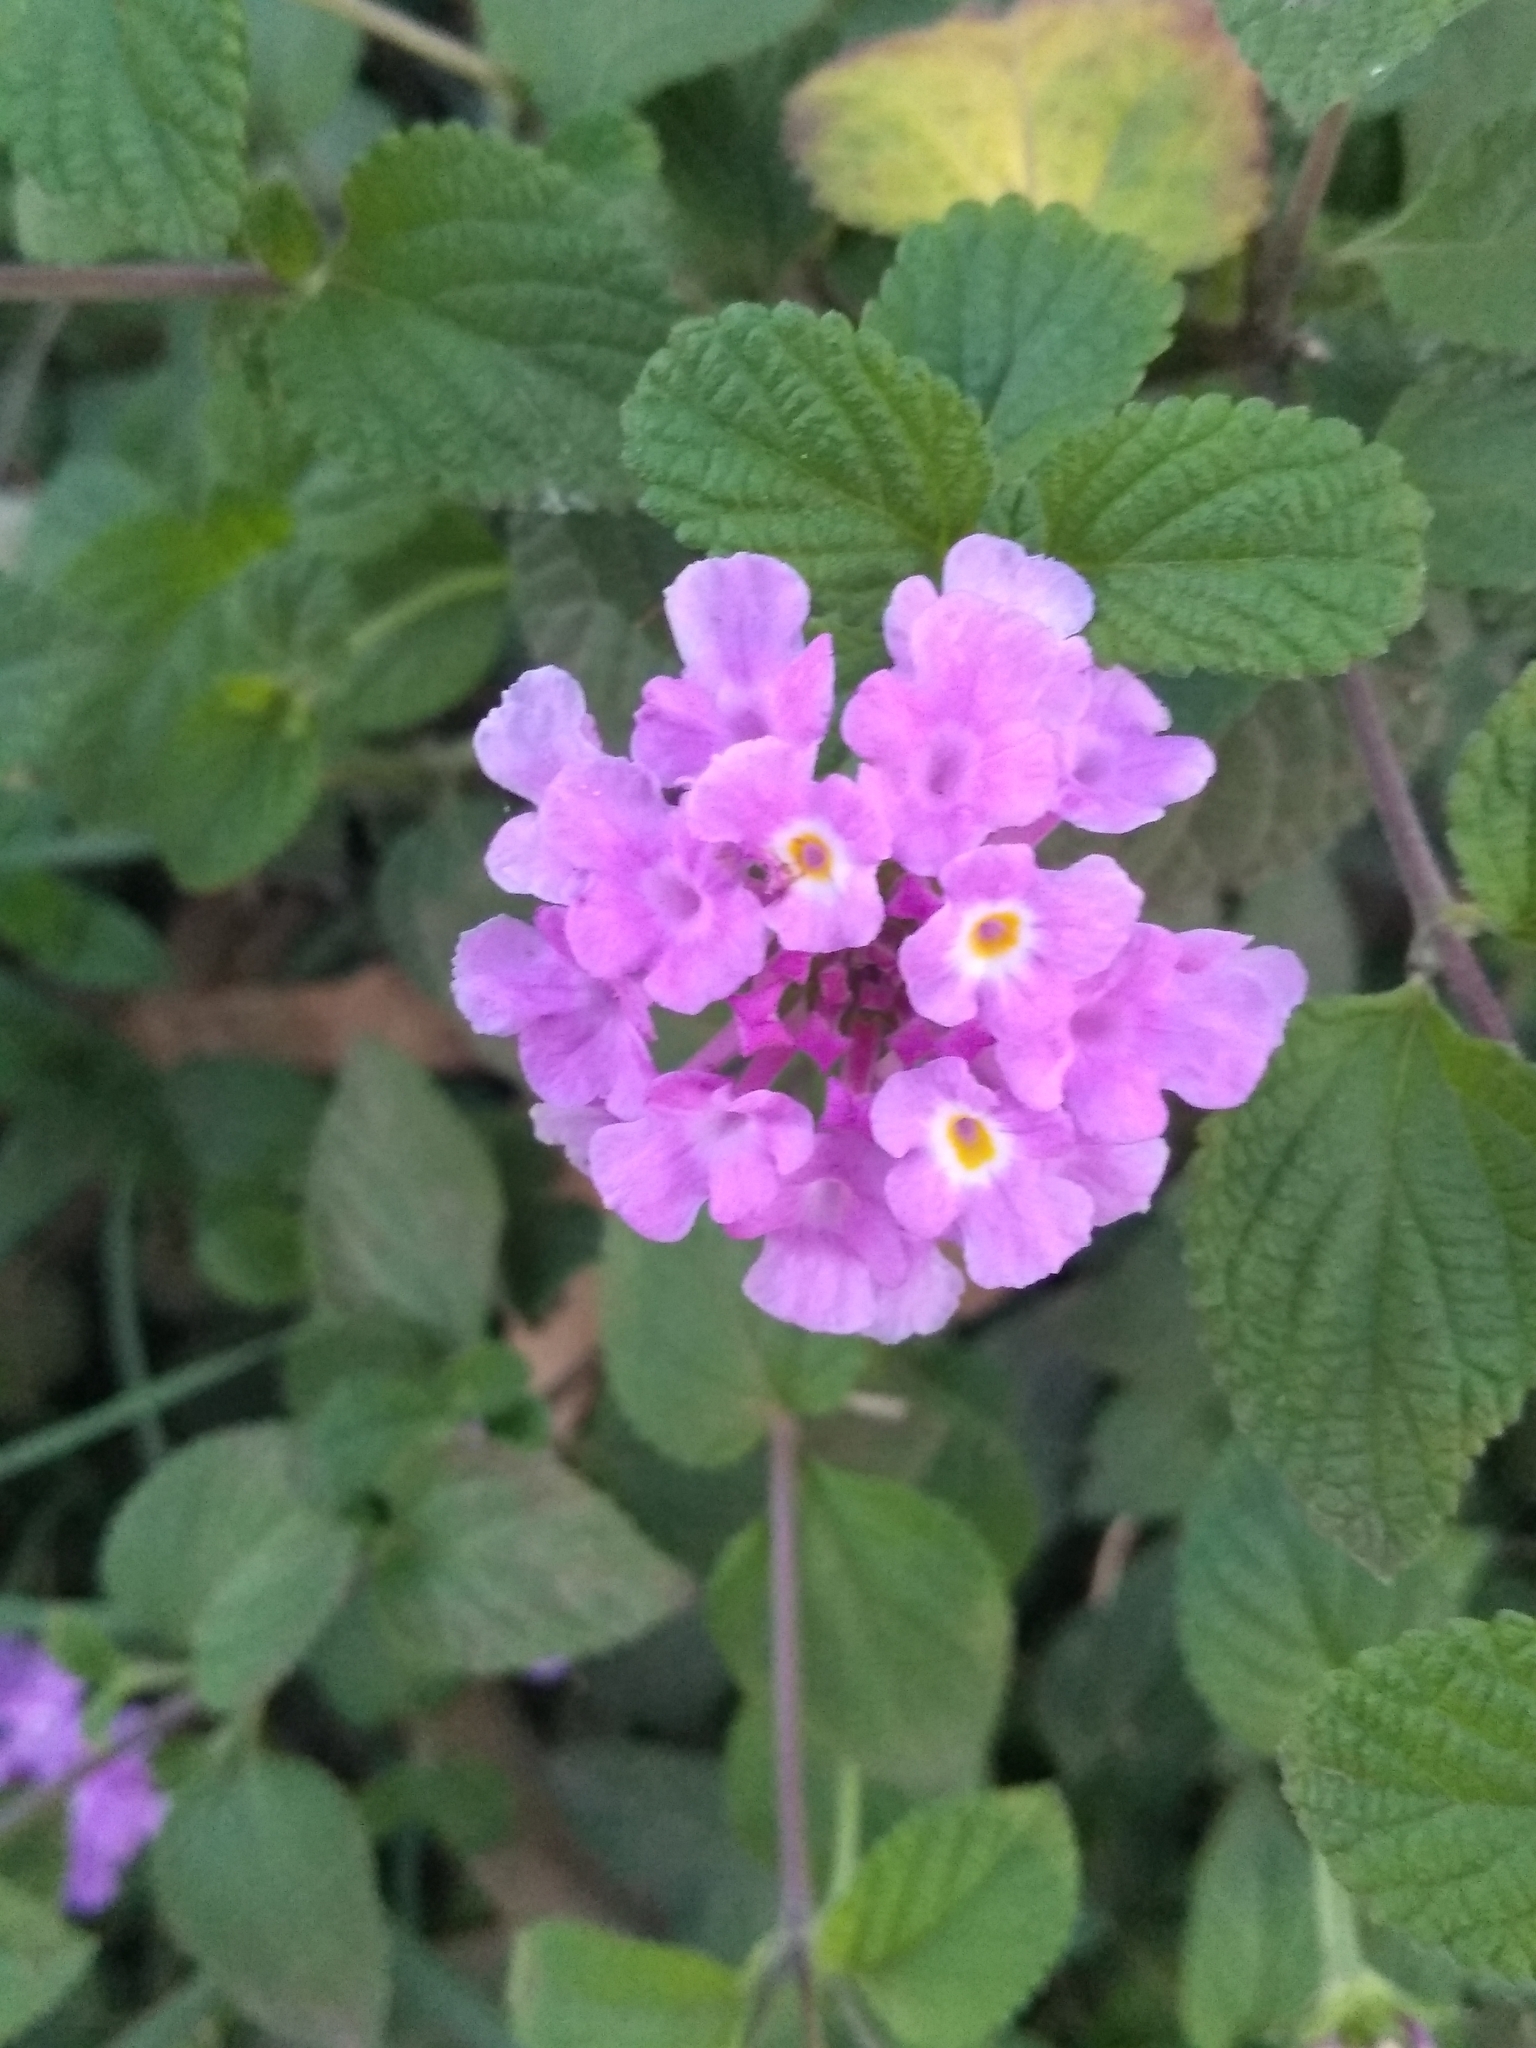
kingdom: Plantae
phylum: Tracheophyta
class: Magnoliopsida
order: Lamiales
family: Verbenaceae
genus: Lantana
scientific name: Lantana megapotamica
